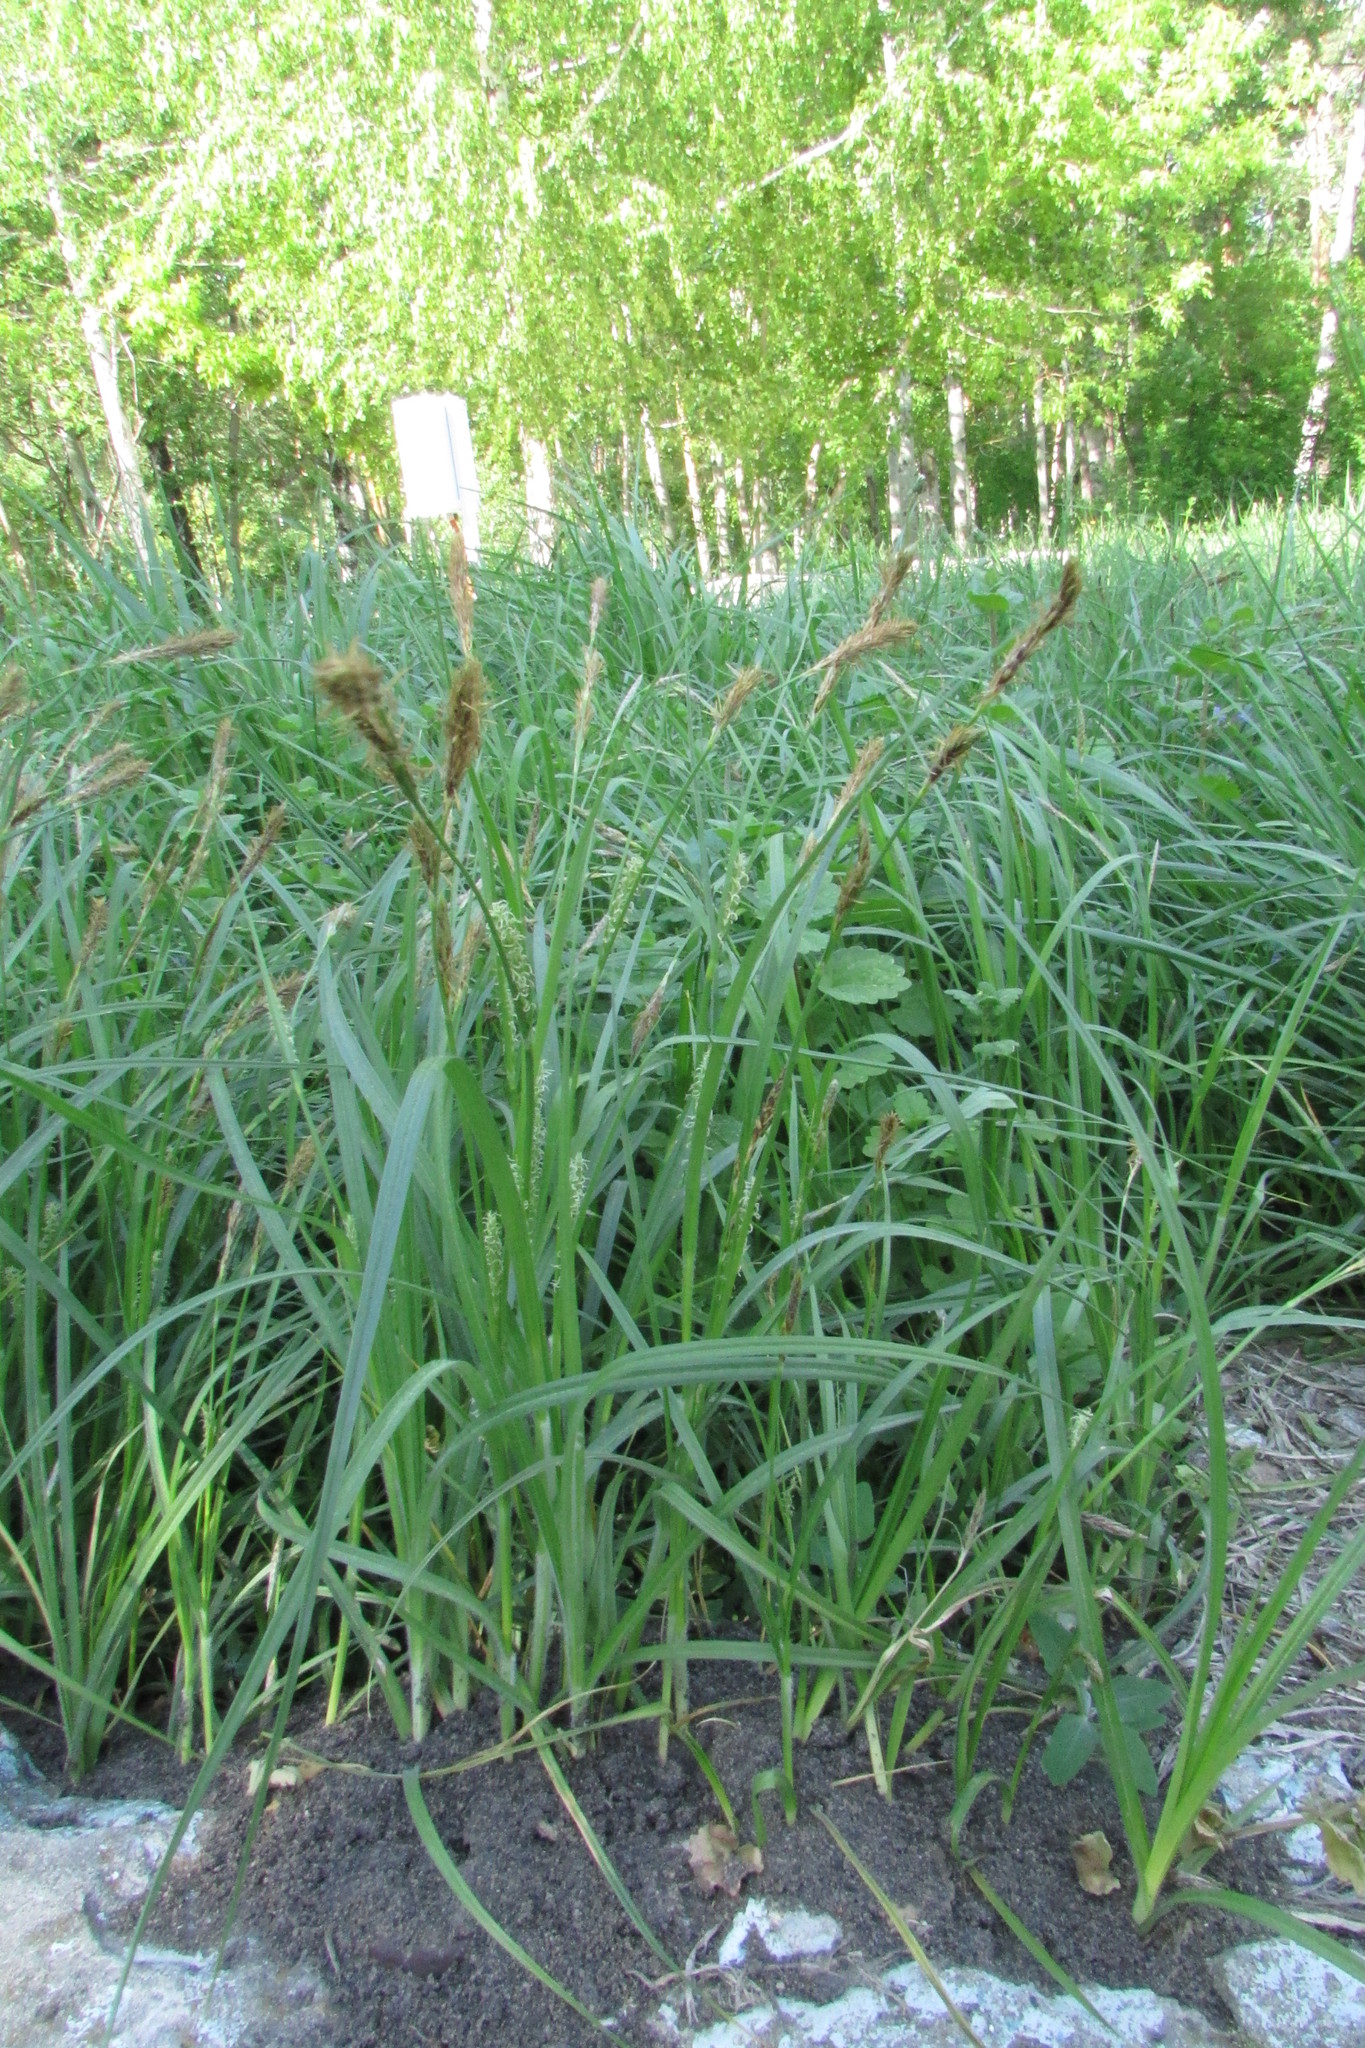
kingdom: Plantae
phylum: Tracheophyta
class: Liliopsida
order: Poales
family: Cyperaceae
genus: Carex
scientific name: Carex hirta
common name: Hairy sedge
